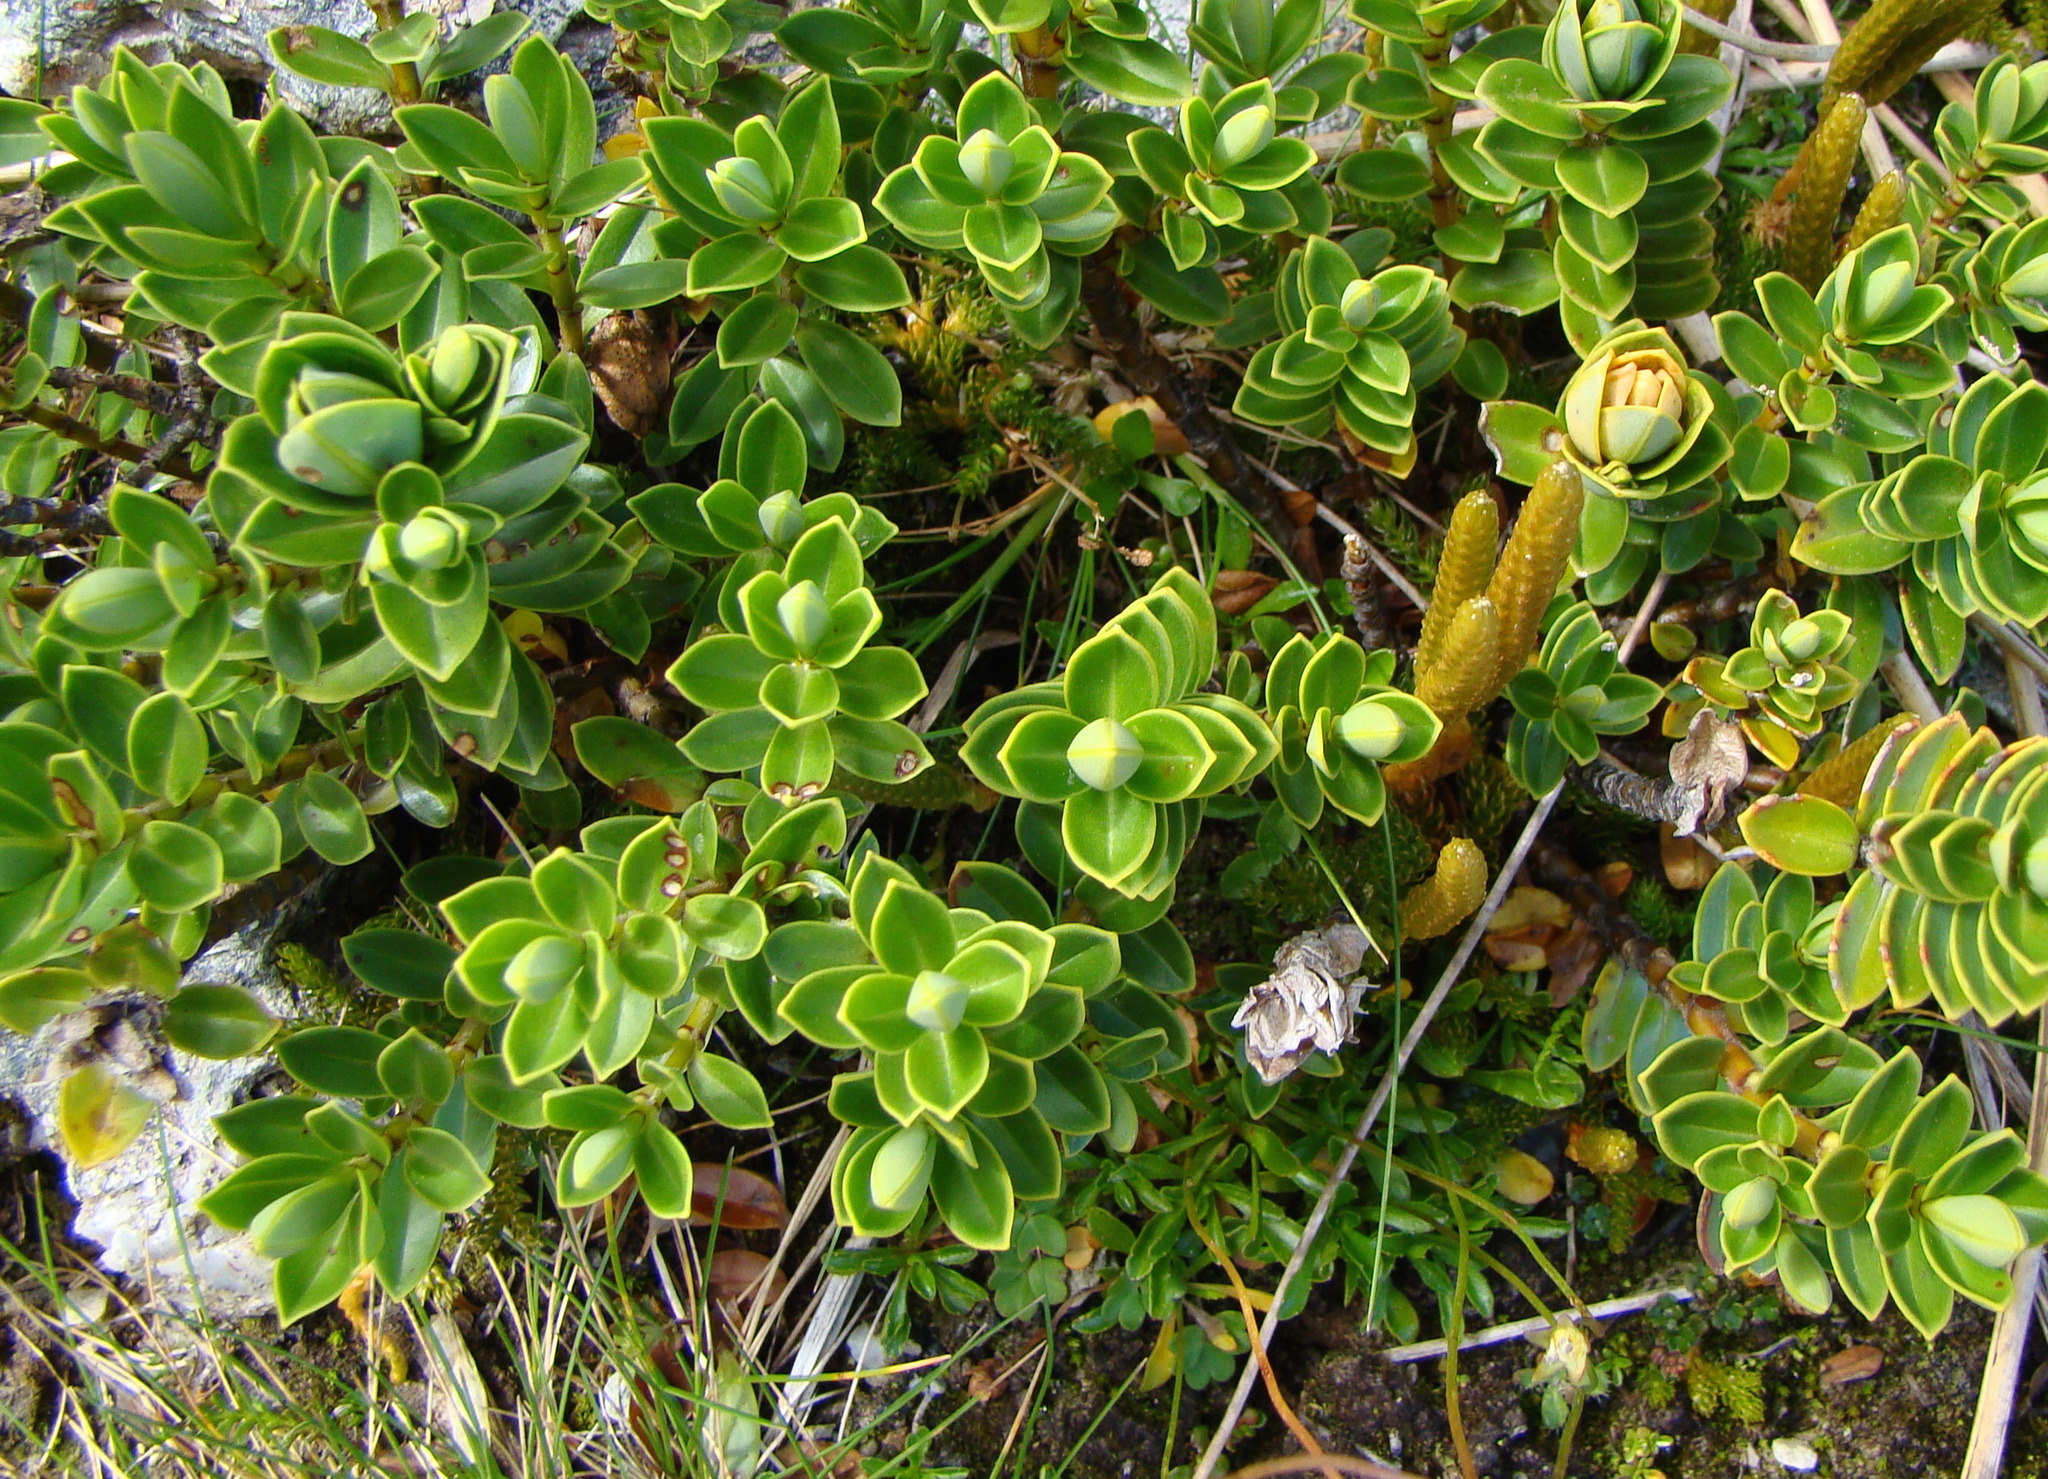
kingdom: Plantae
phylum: Tracheophyta
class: Magnoliopsida
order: Lamiales
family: Plantaginaceae
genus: Veronica
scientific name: Veronica cockayneana
